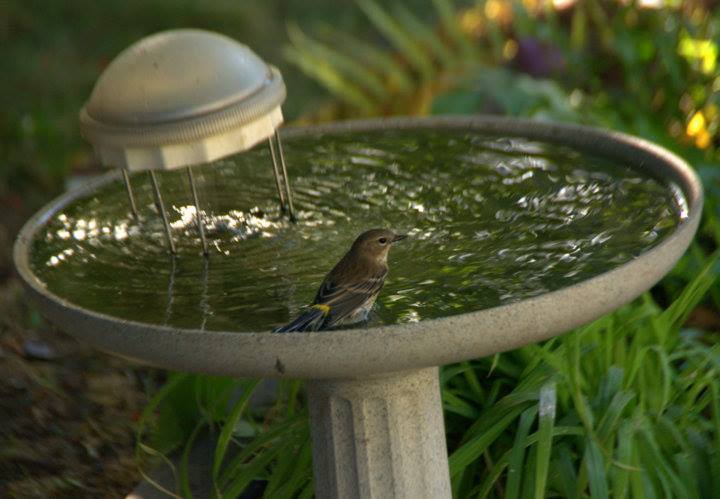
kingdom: Animalia
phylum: Chordata
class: Aves
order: Passeriformes
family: Parulidae
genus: Setophaga
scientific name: Setophaga coronata
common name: Myrtle warbler
